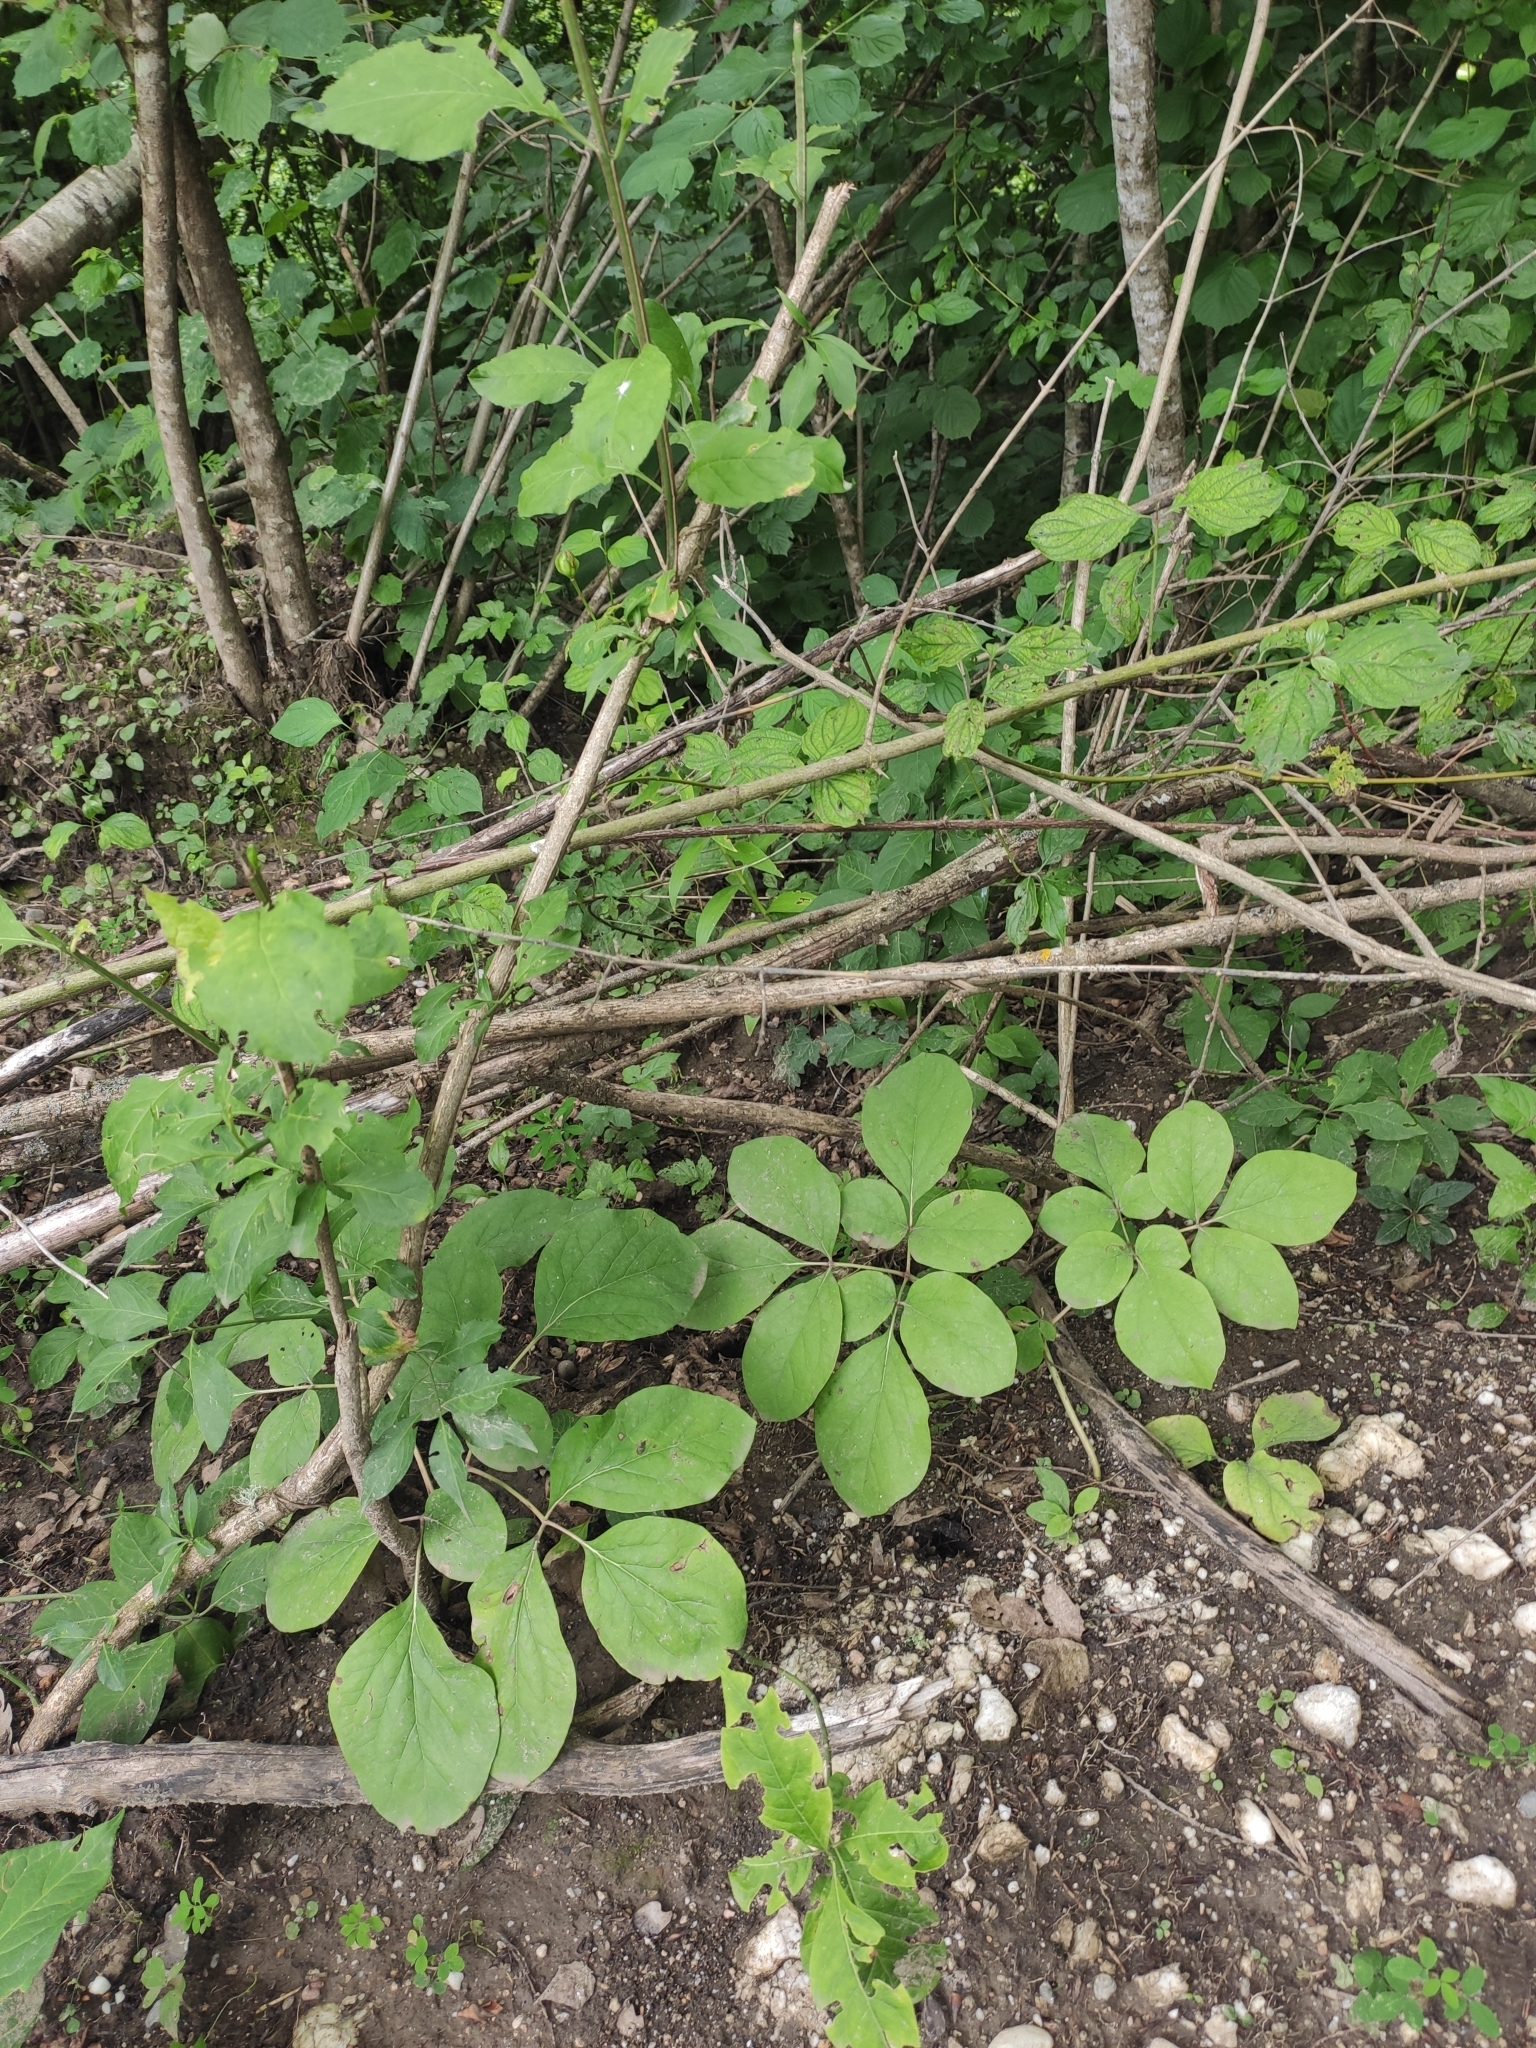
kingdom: Plantae
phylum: Tracheophyta
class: Magnoliopsida
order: Saxifragales
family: Paeoniaceae
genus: Paeonia
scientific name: Paeonia caucasica
